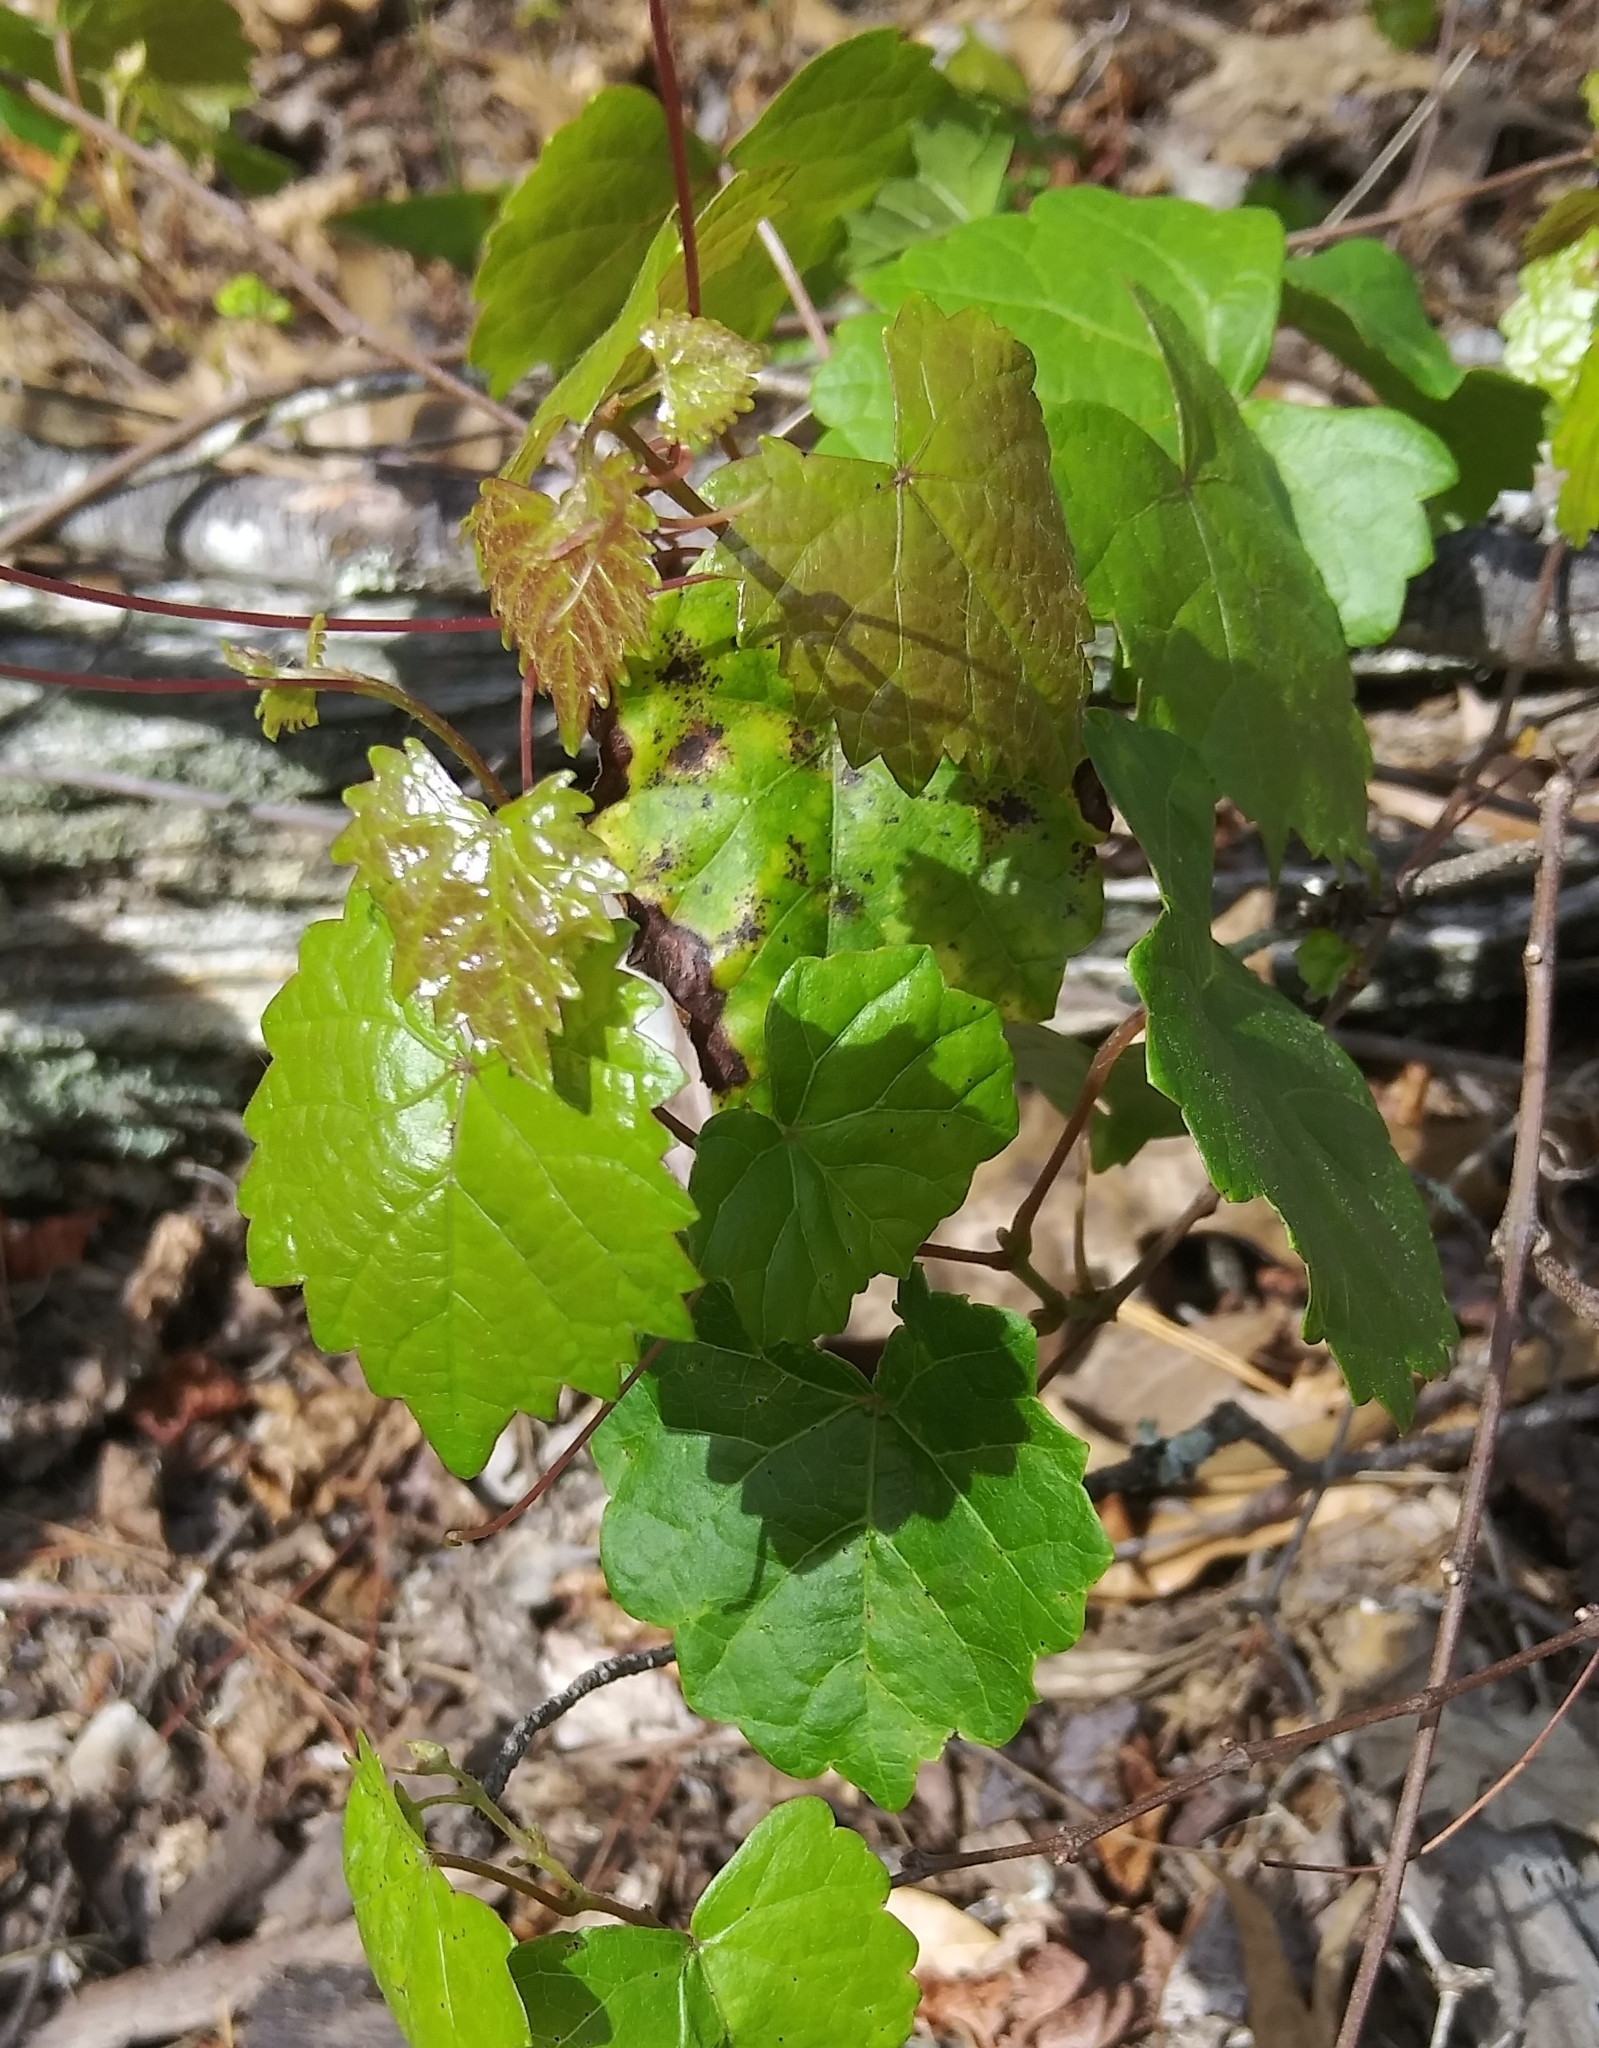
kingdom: Plantae
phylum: Tracheophyta
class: Magnoliopsida
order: Vitales
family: Vitaceae
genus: Vitis
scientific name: Vitis rotundifolia
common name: Muscadine grape
